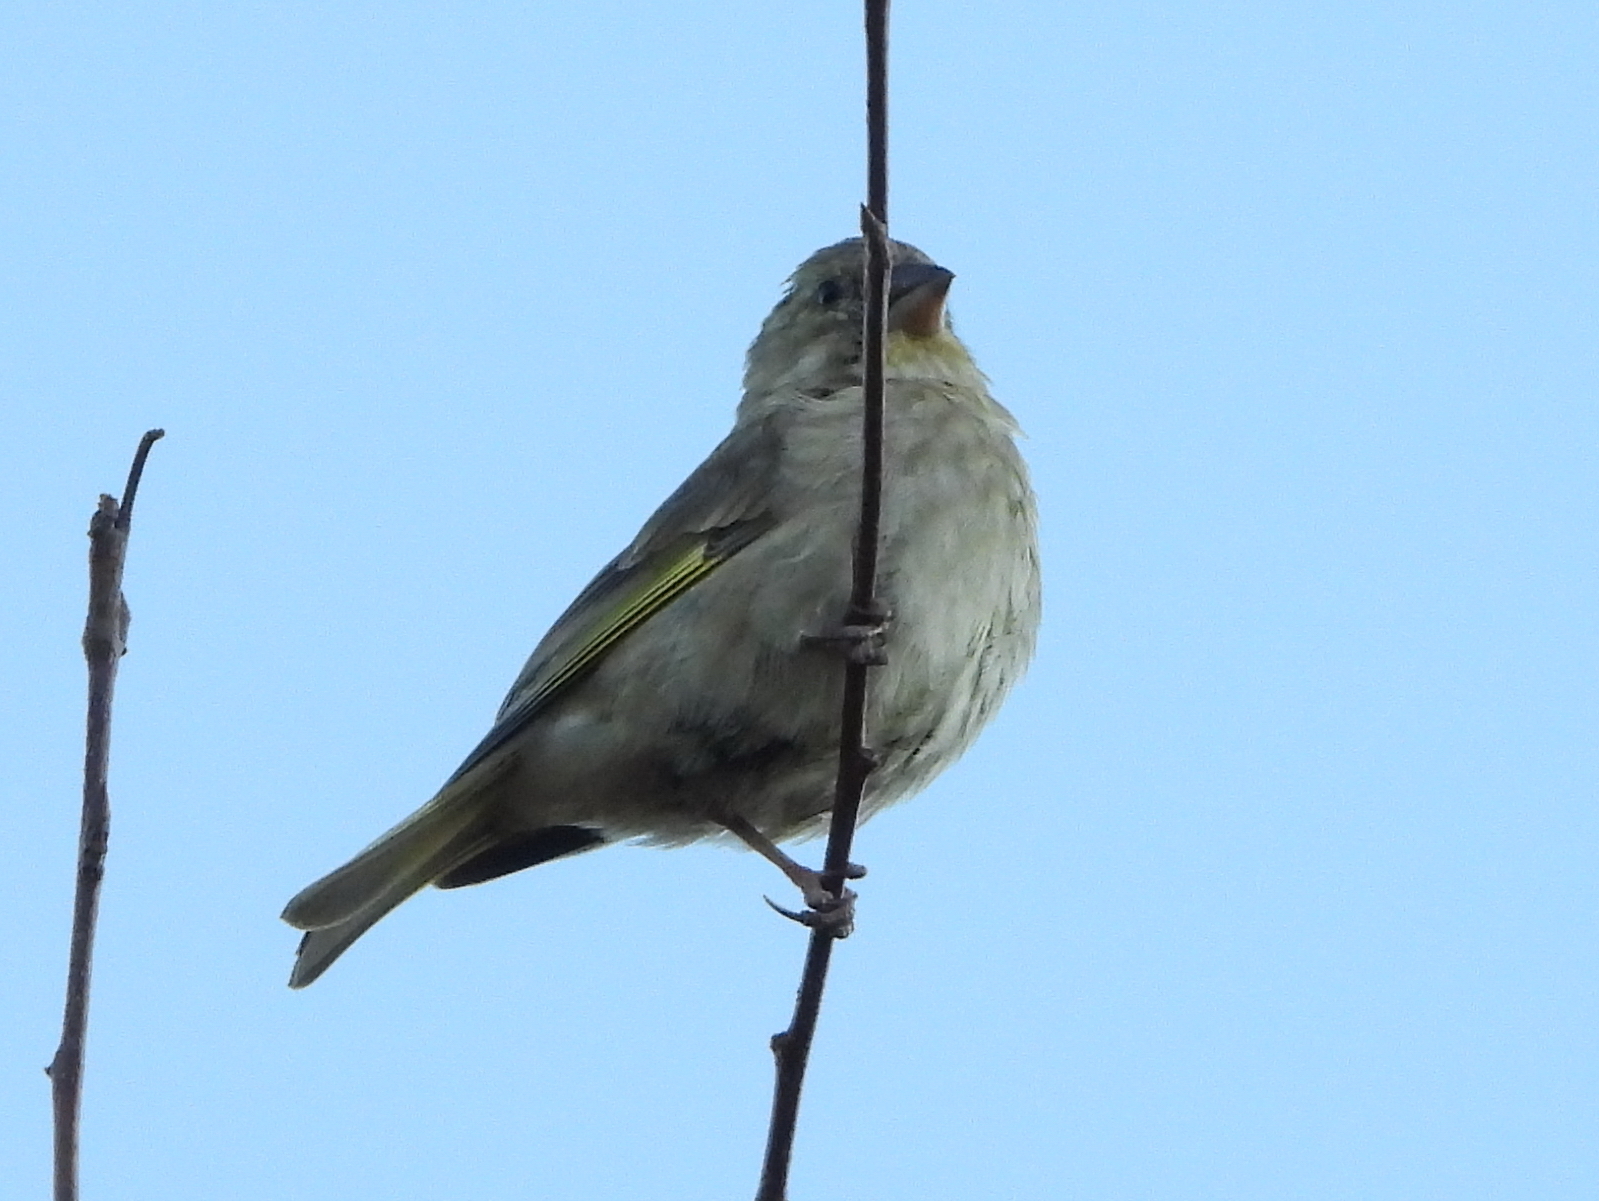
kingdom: Plantae
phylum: Tracheophyta
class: Liliopsida
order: Poales
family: Poaceae
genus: Chloris
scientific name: Chloris chloris
